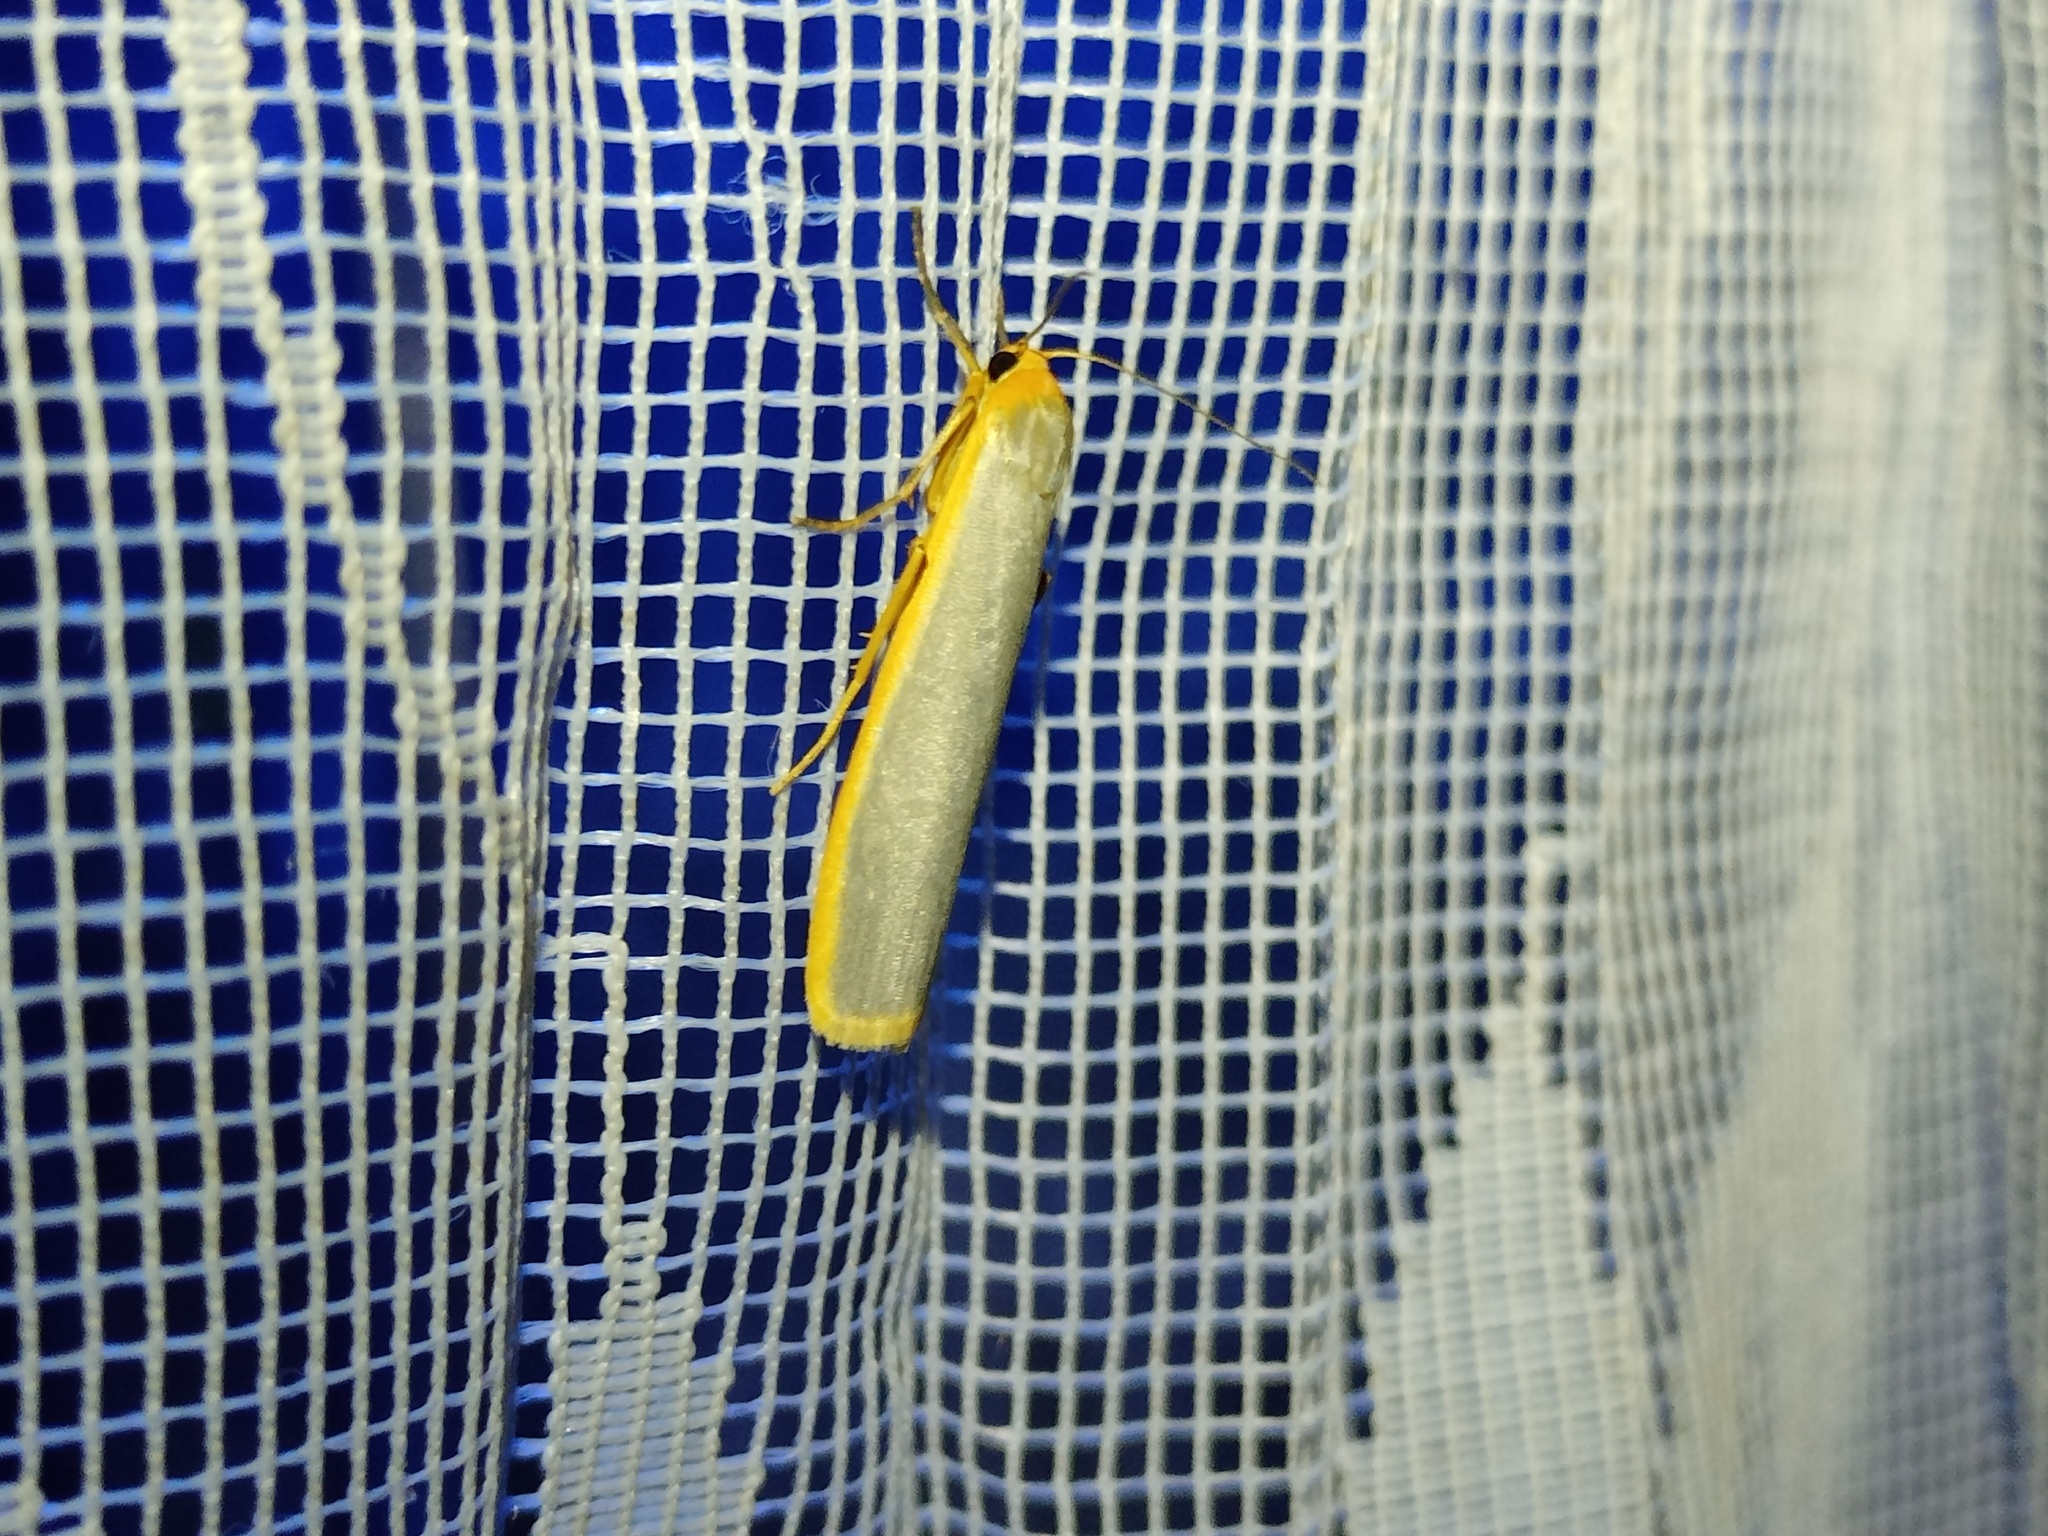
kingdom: Animalia
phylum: Arthropoda
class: Insecta
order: Lepidoptera
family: Erebidae
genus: Manulea
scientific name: Manulea complana
